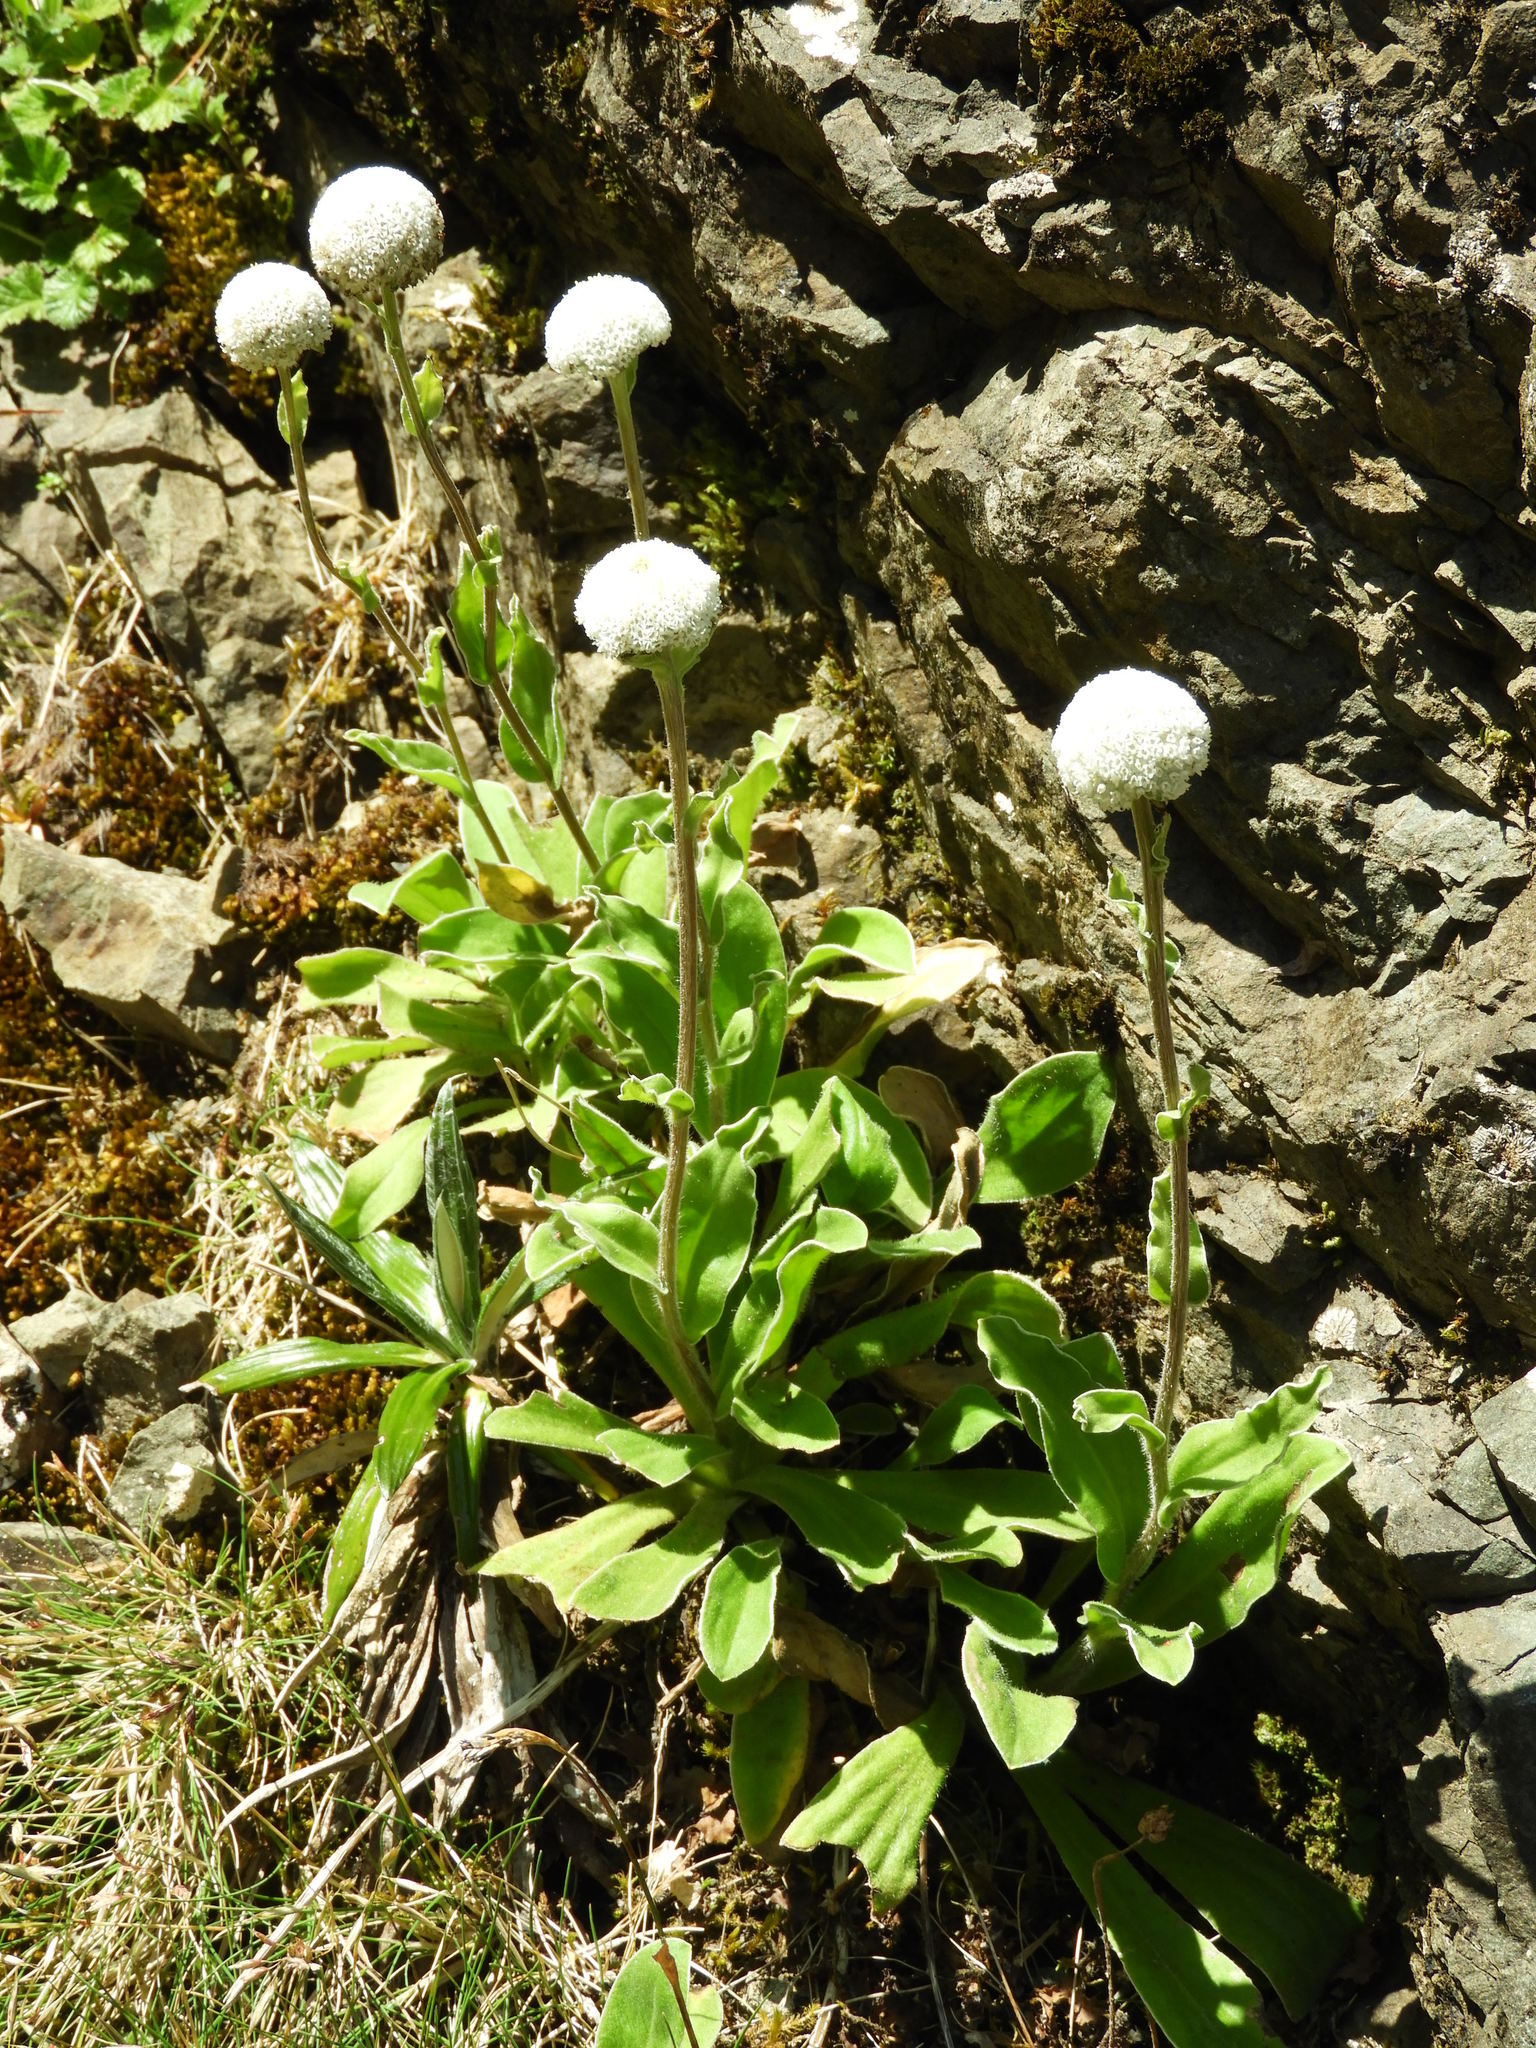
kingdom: Plantae
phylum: Tracheophyta
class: Magnoliopsida
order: Asterales
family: Asteraceae
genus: Craspedia
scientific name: Craspedia uniflora
